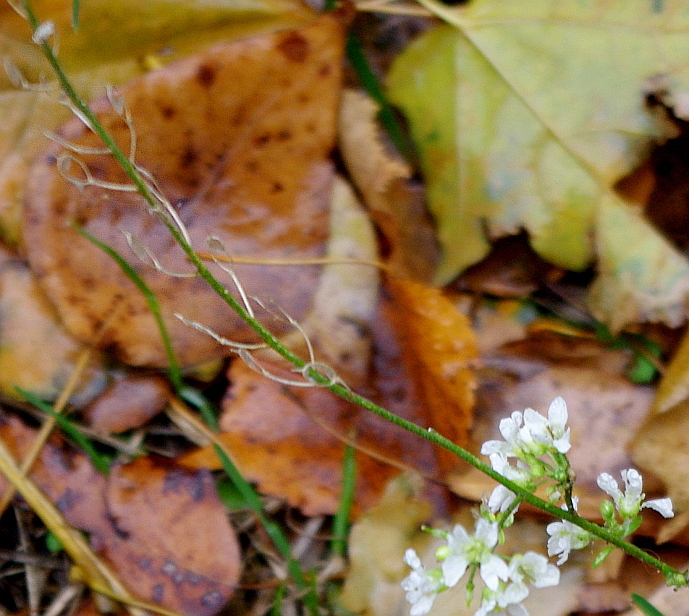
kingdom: Plantae
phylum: Tracheophyta
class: Magnoliopsida
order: Brassicales
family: Brassicaceae
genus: Berteroa
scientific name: Berteroa incana
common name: Hoary alison
